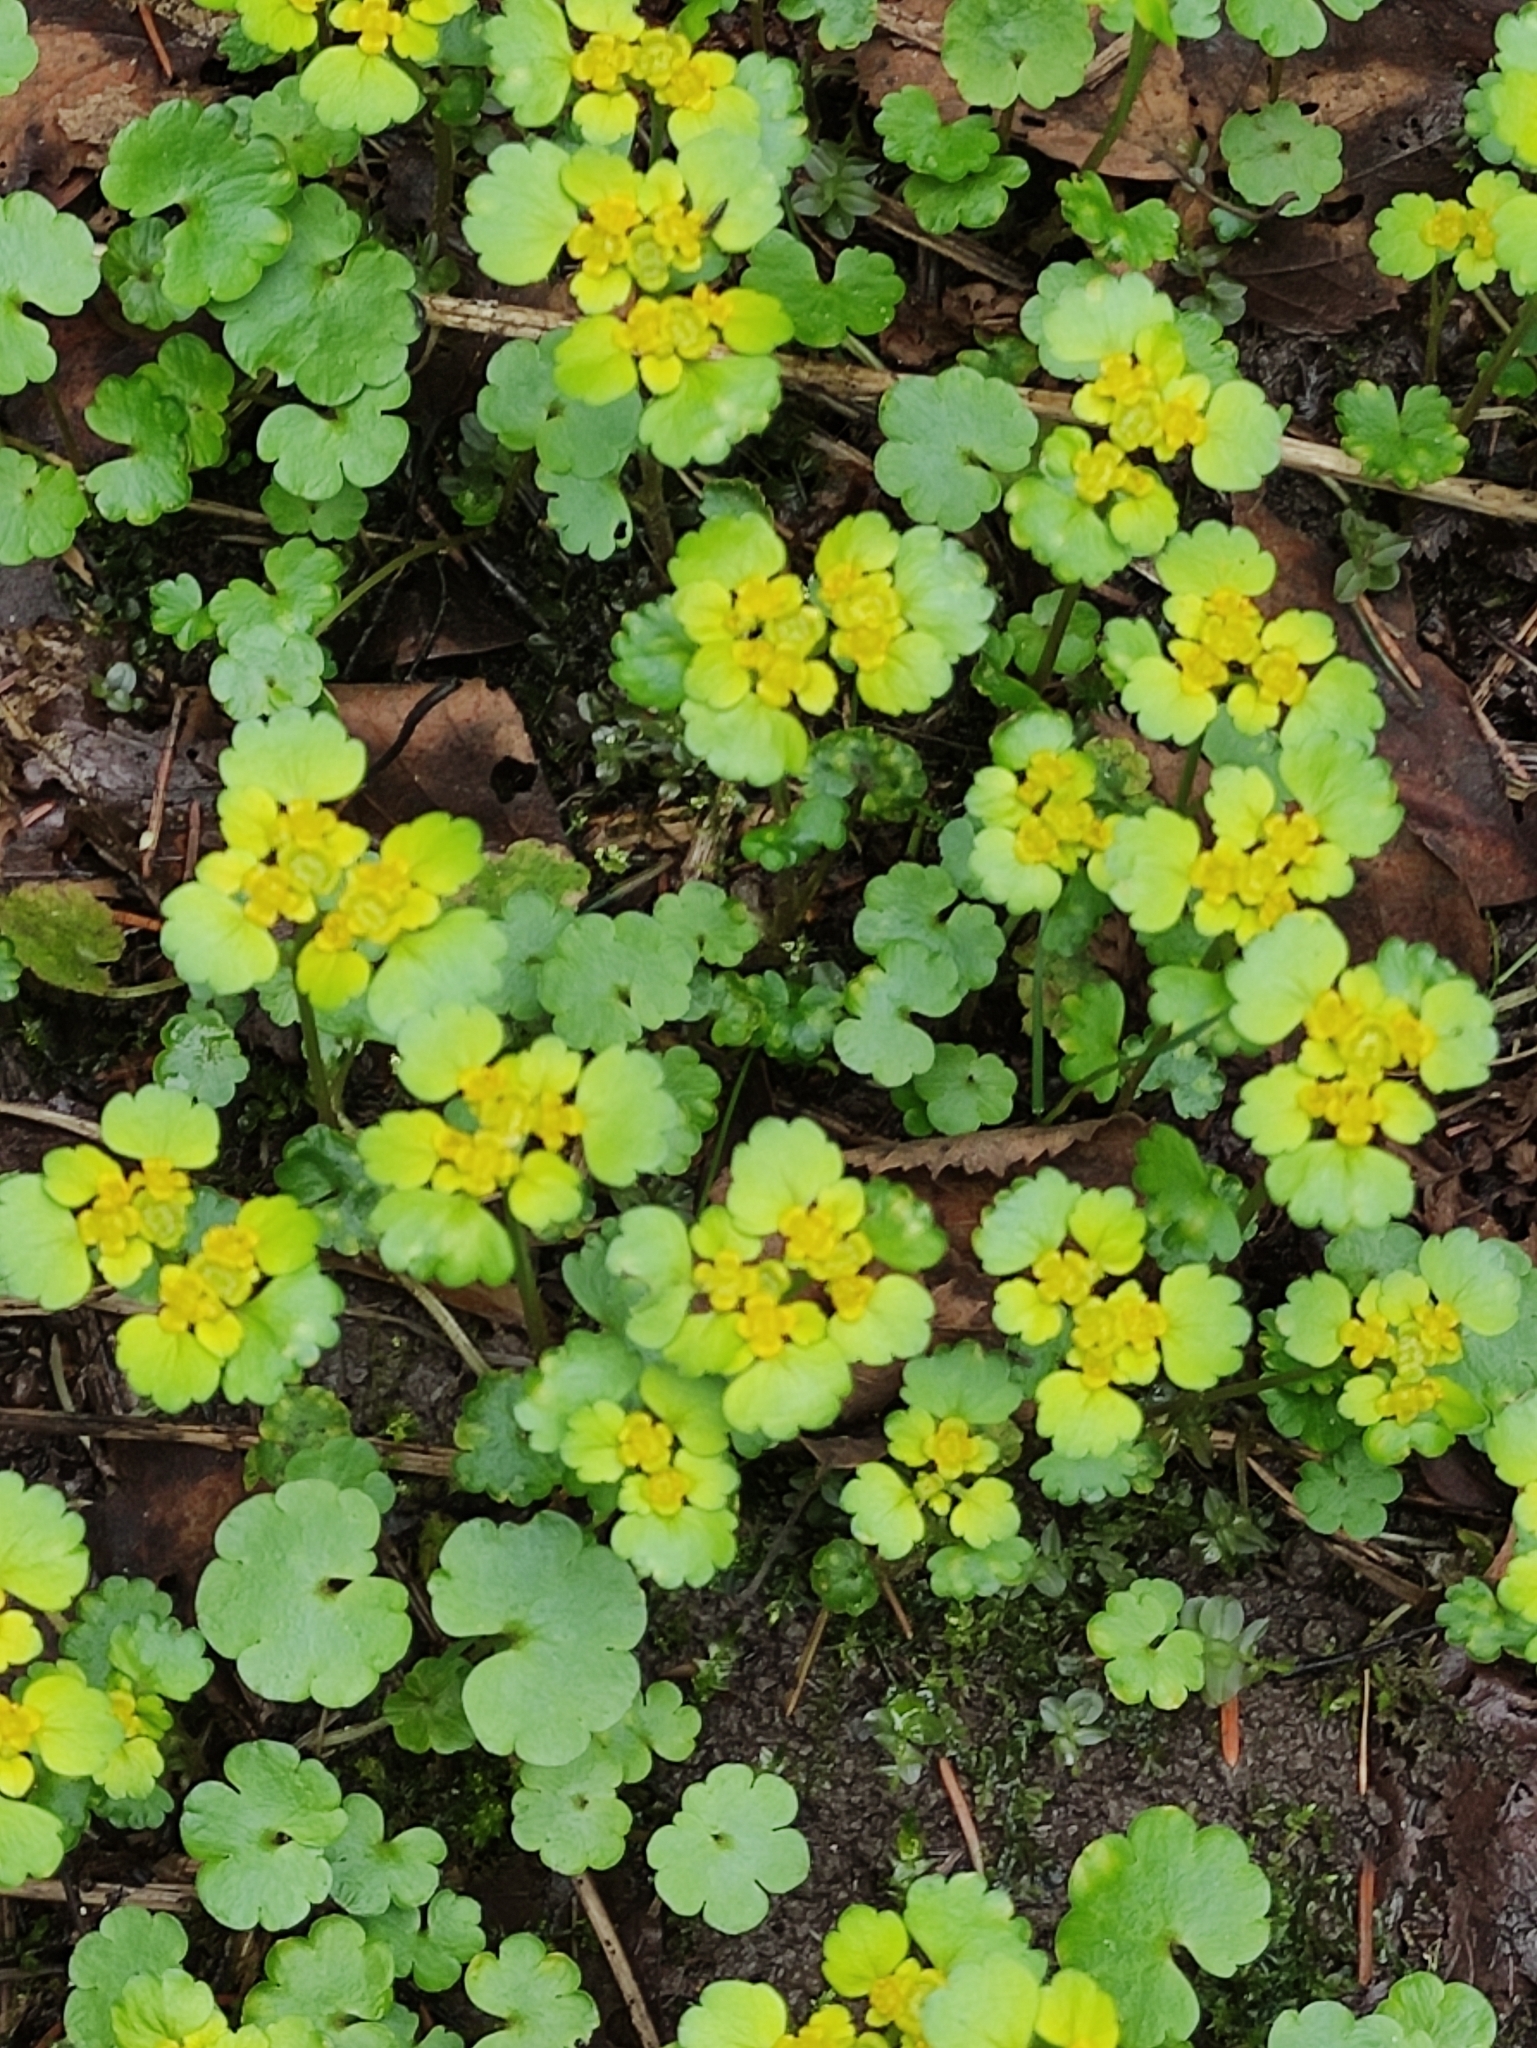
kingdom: Plantae
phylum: Tracheophyta
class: Magnoliopsida
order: Saxifragales
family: Saxifragaceae
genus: Chrysosplenium
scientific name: Chrysosplenium alternifolium
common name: Alternate-leaved golden-saxifrage
